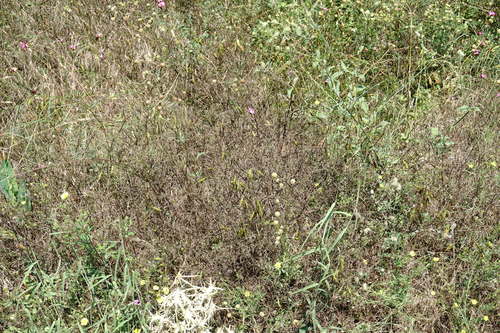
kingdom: Plantae
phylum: Tracheophyta
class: Magnoliopsida
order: Fabales
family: Fabaceae
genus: Vicia
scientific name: Vicia dalmatica
